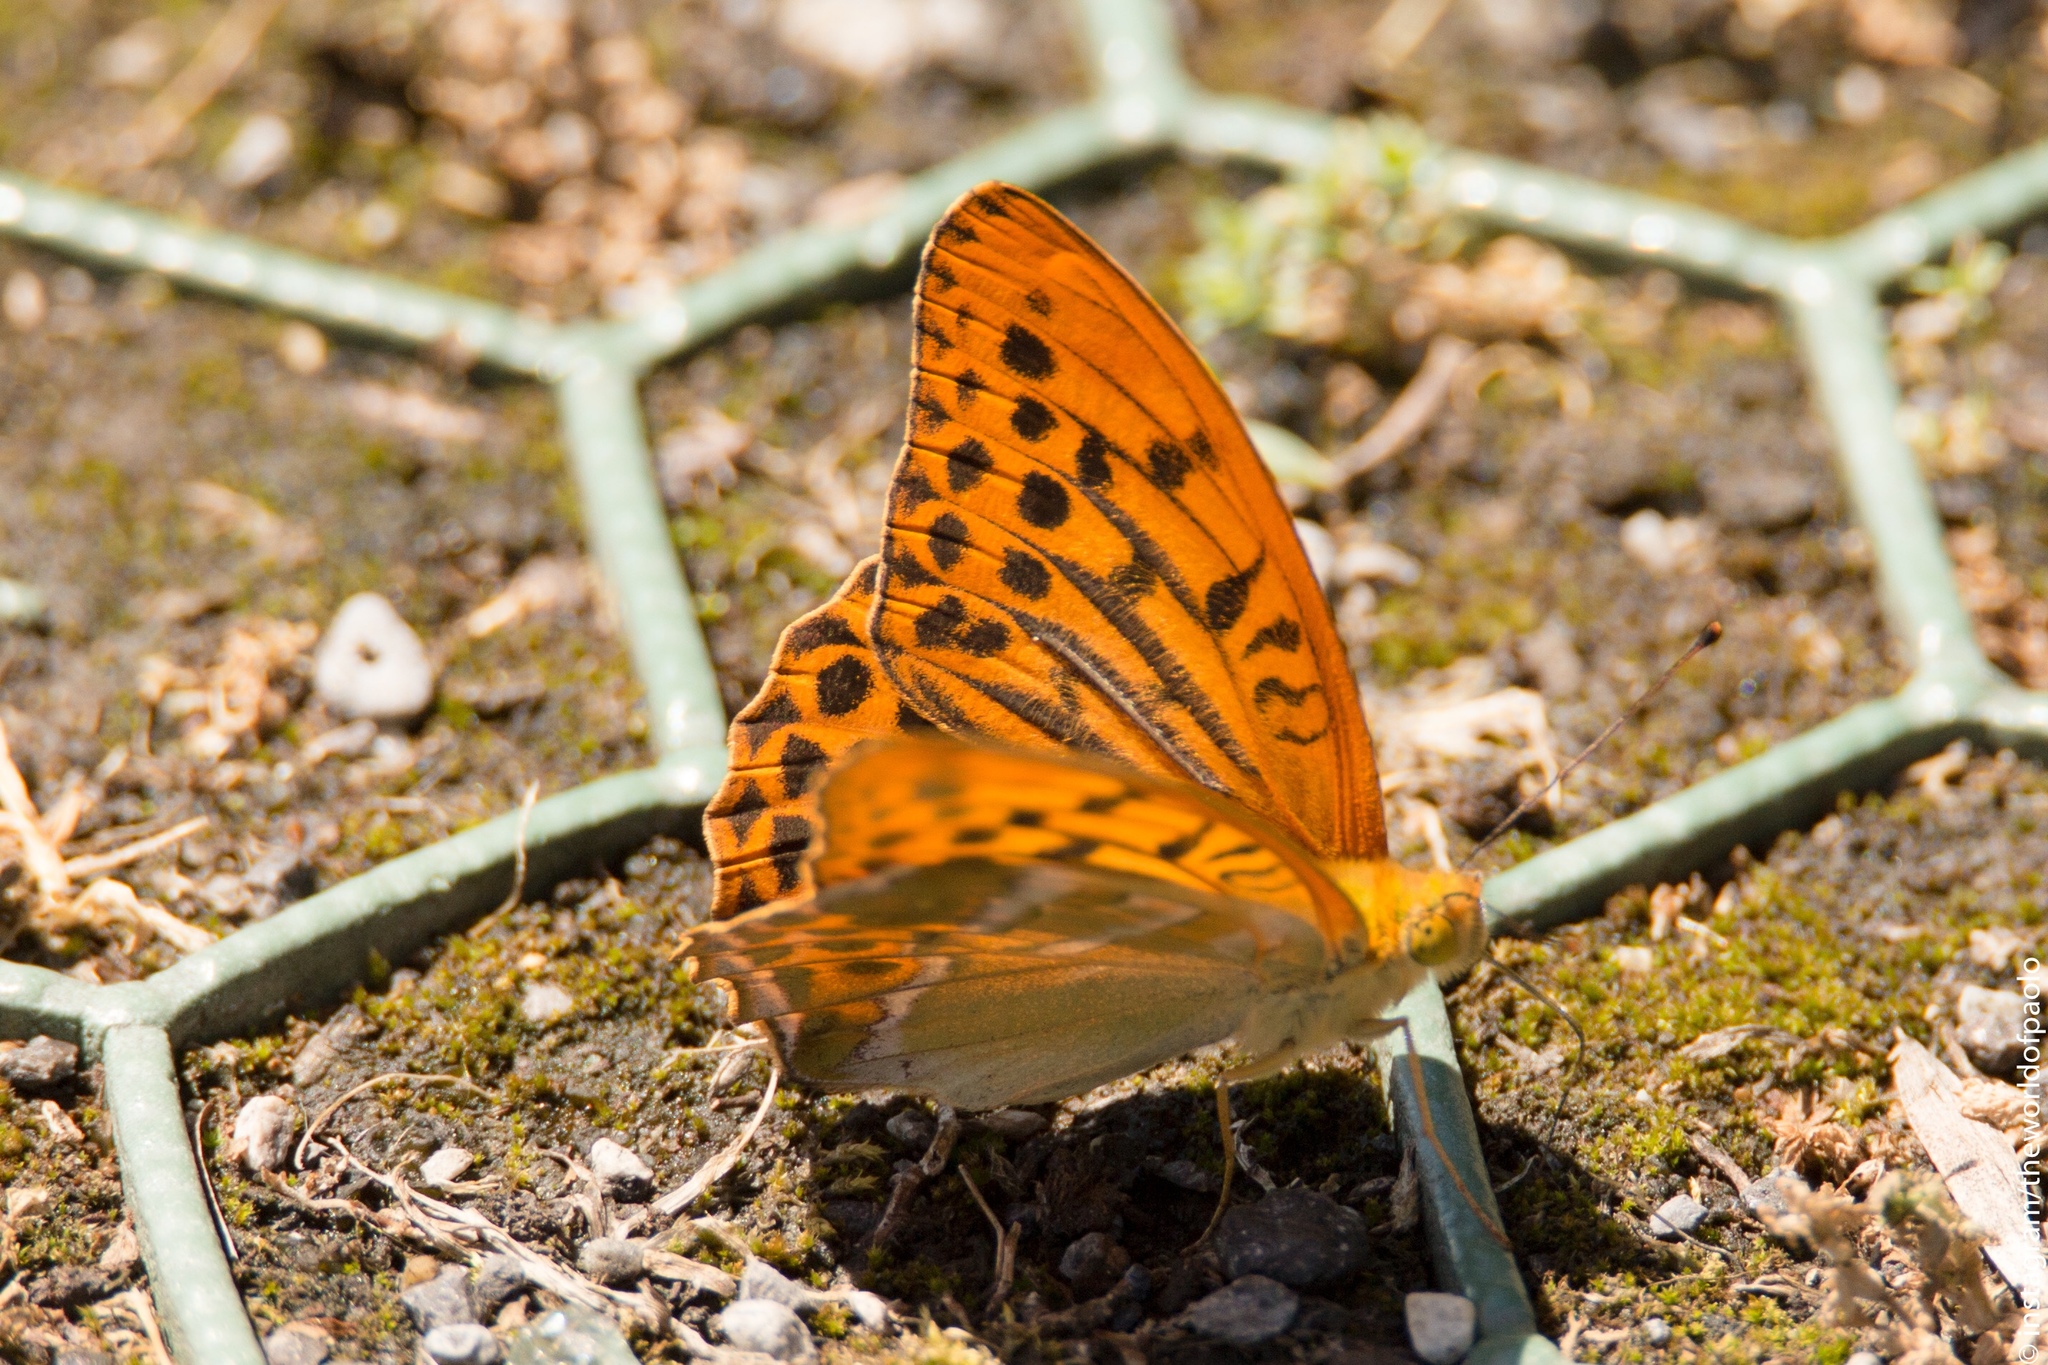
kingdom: Animalia
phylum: Arthropoda
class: Insecta
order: Lepidoptera
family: Nymphalidae
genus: Argynnis
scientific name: Argynnis paphia
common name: Silver-washed fritillary
